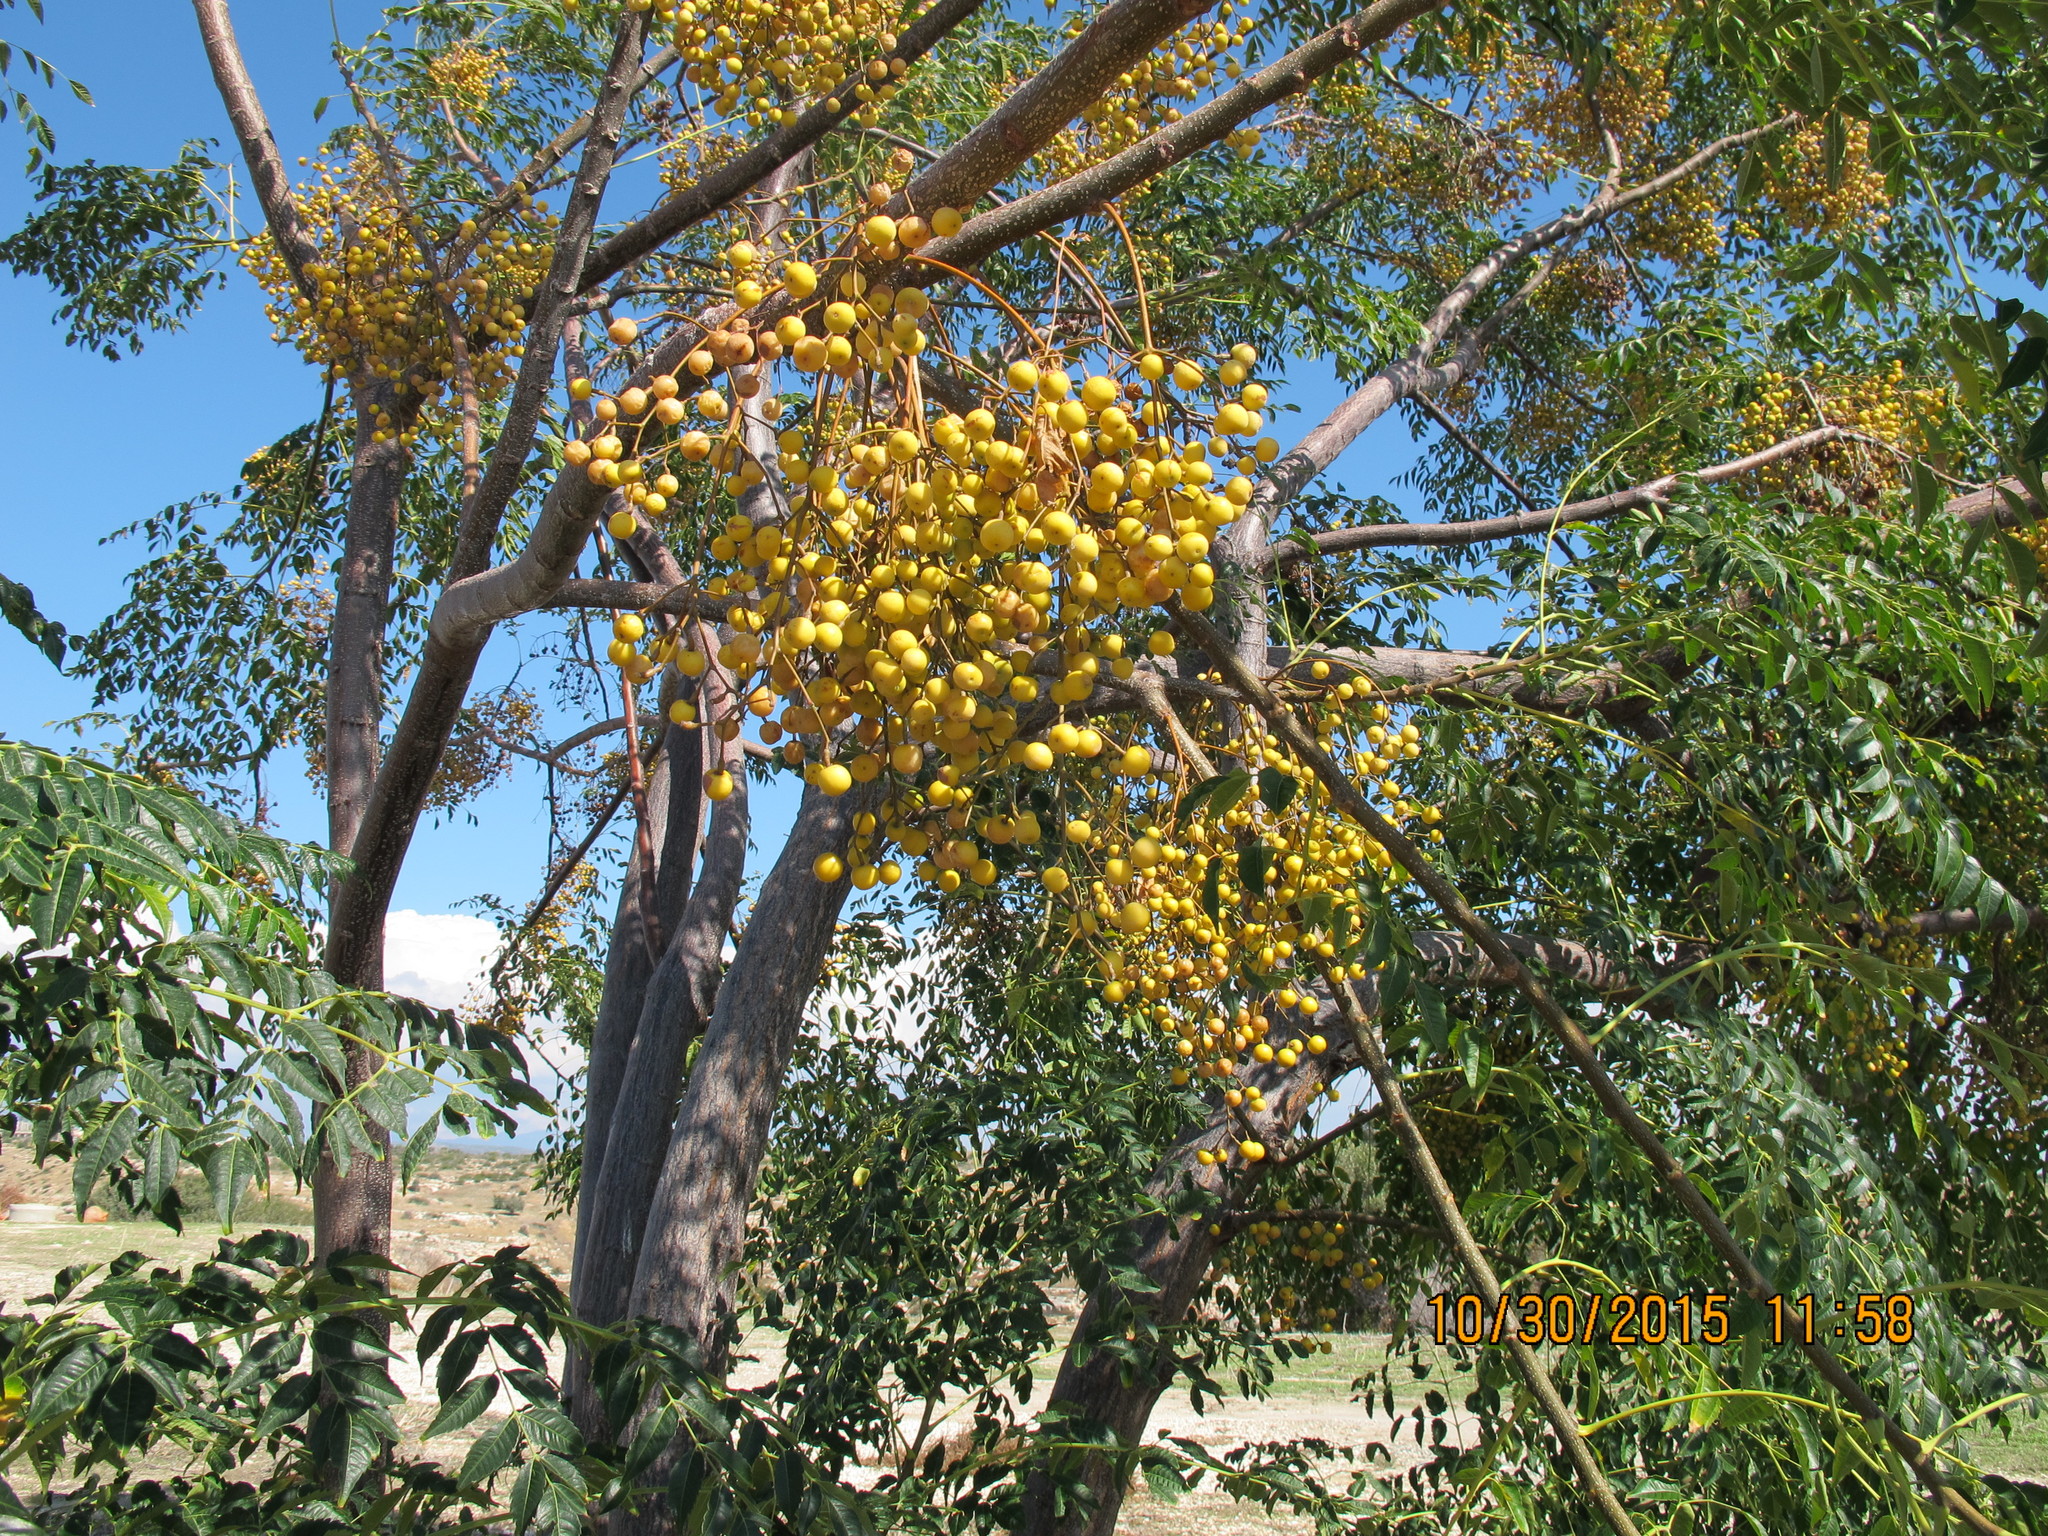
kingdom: Plantae
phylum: Tracheophyta
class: Magnoliopsida
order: Sapindales
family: Meliaceae
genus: Melia
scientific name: Melia azedarach
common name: Chinaberrytree
